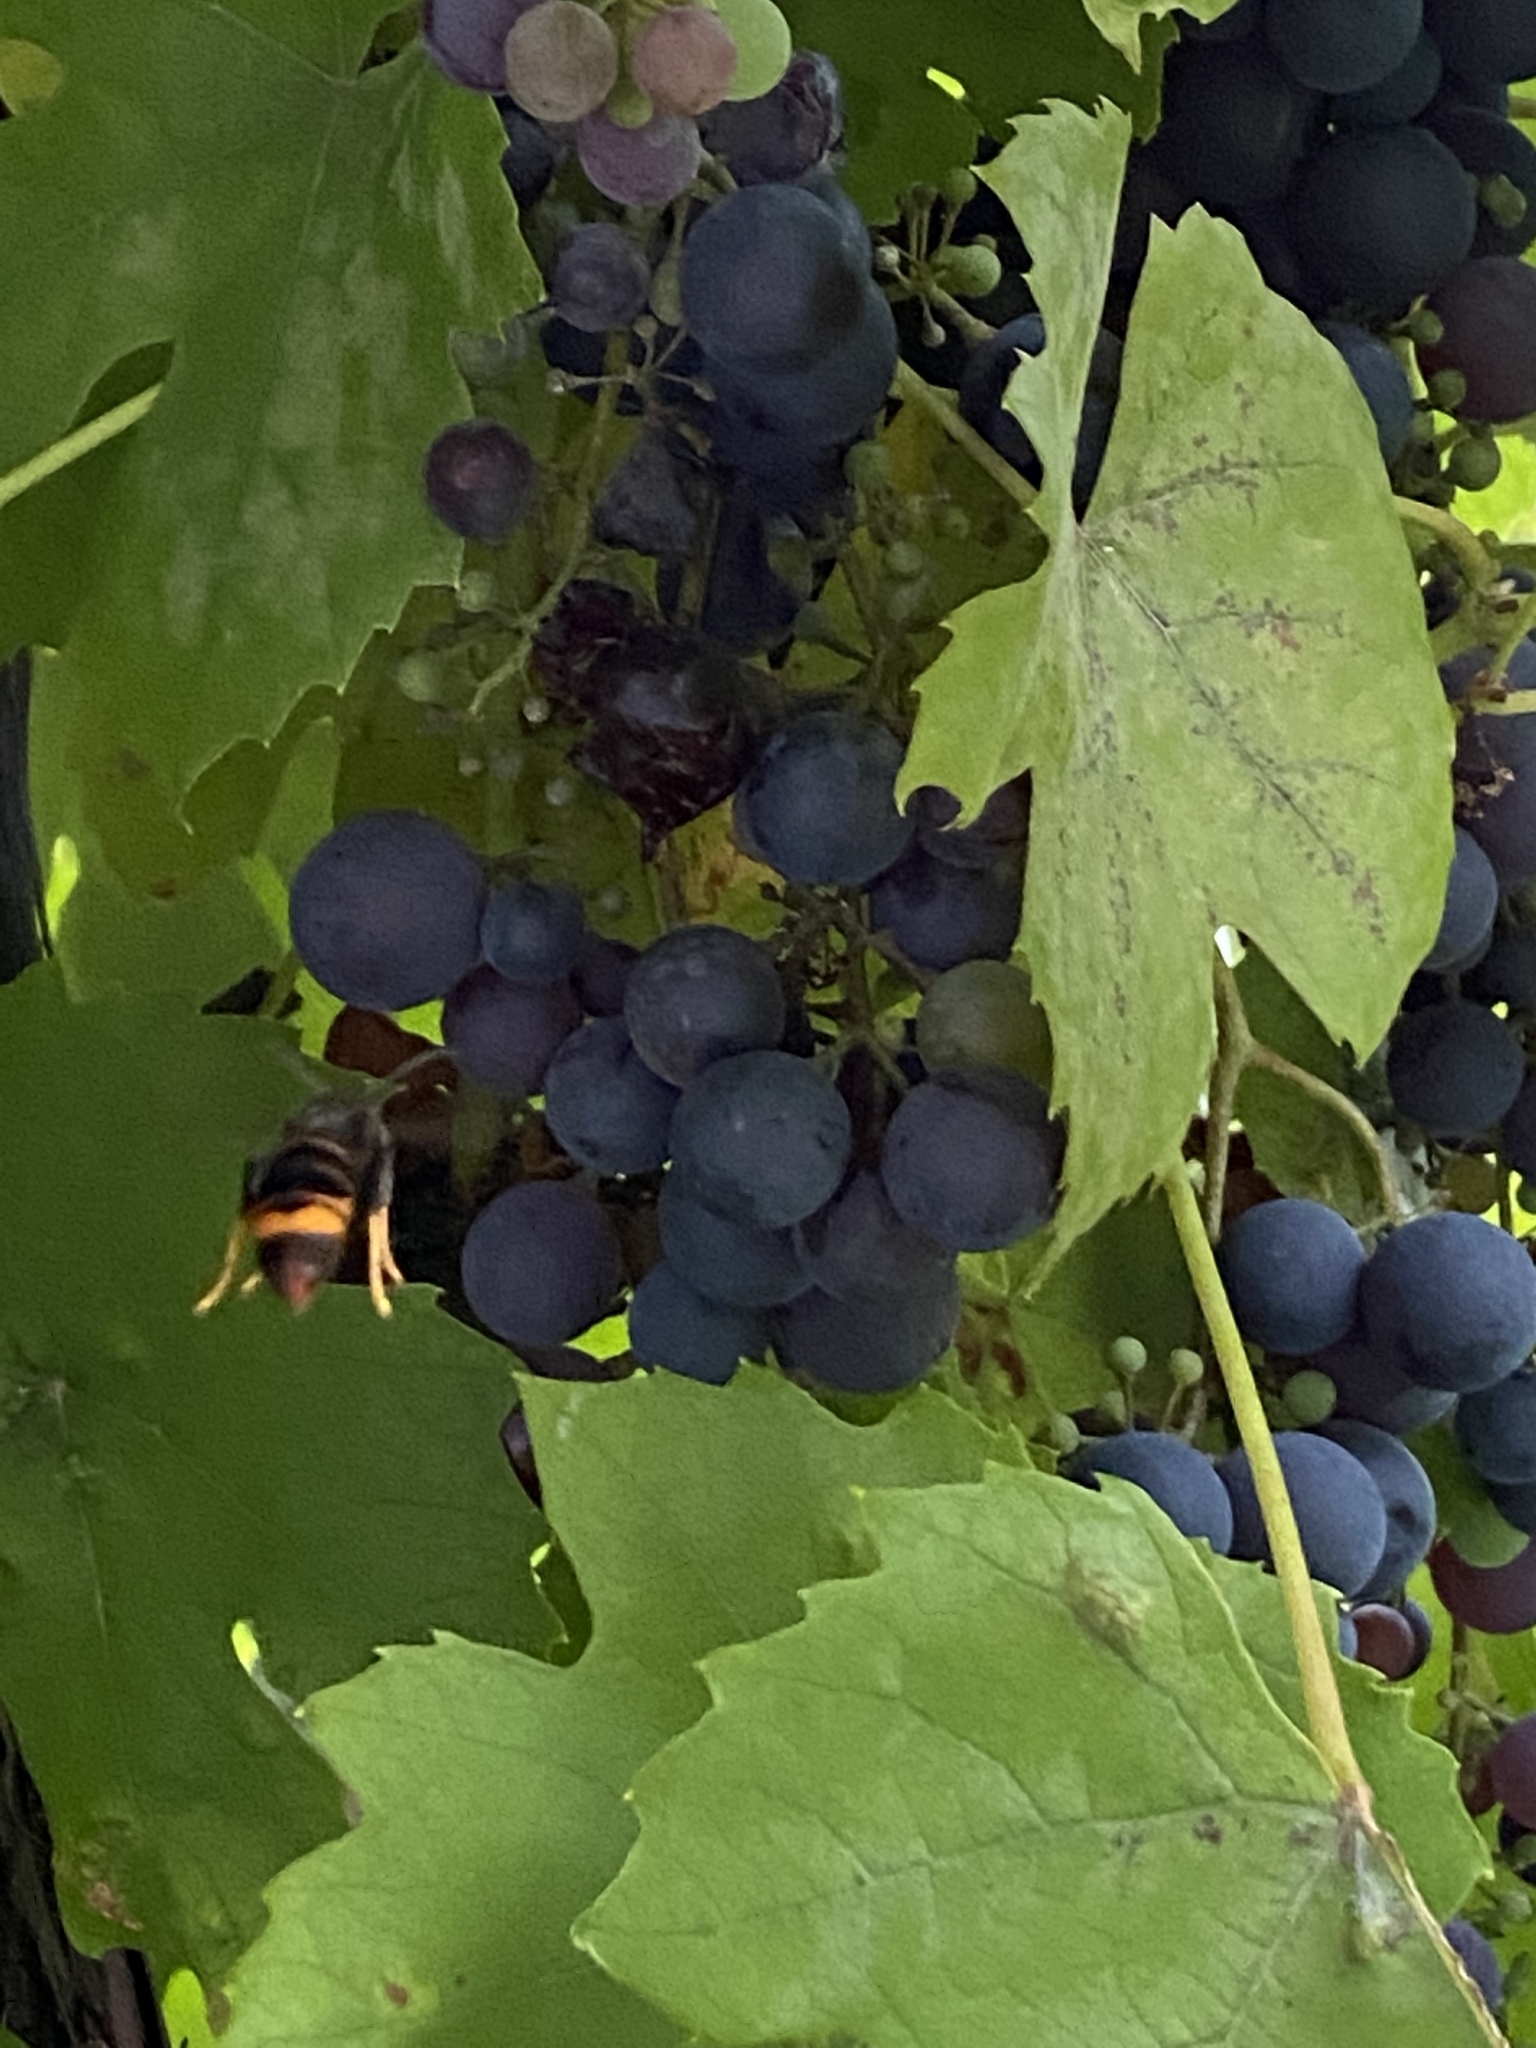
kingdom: Animalia
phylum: Arthropoda
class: Insecta
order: Hymenoptera
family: Vespidae
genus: Vespa
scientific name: Vespa velutina
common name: Asian hornet
